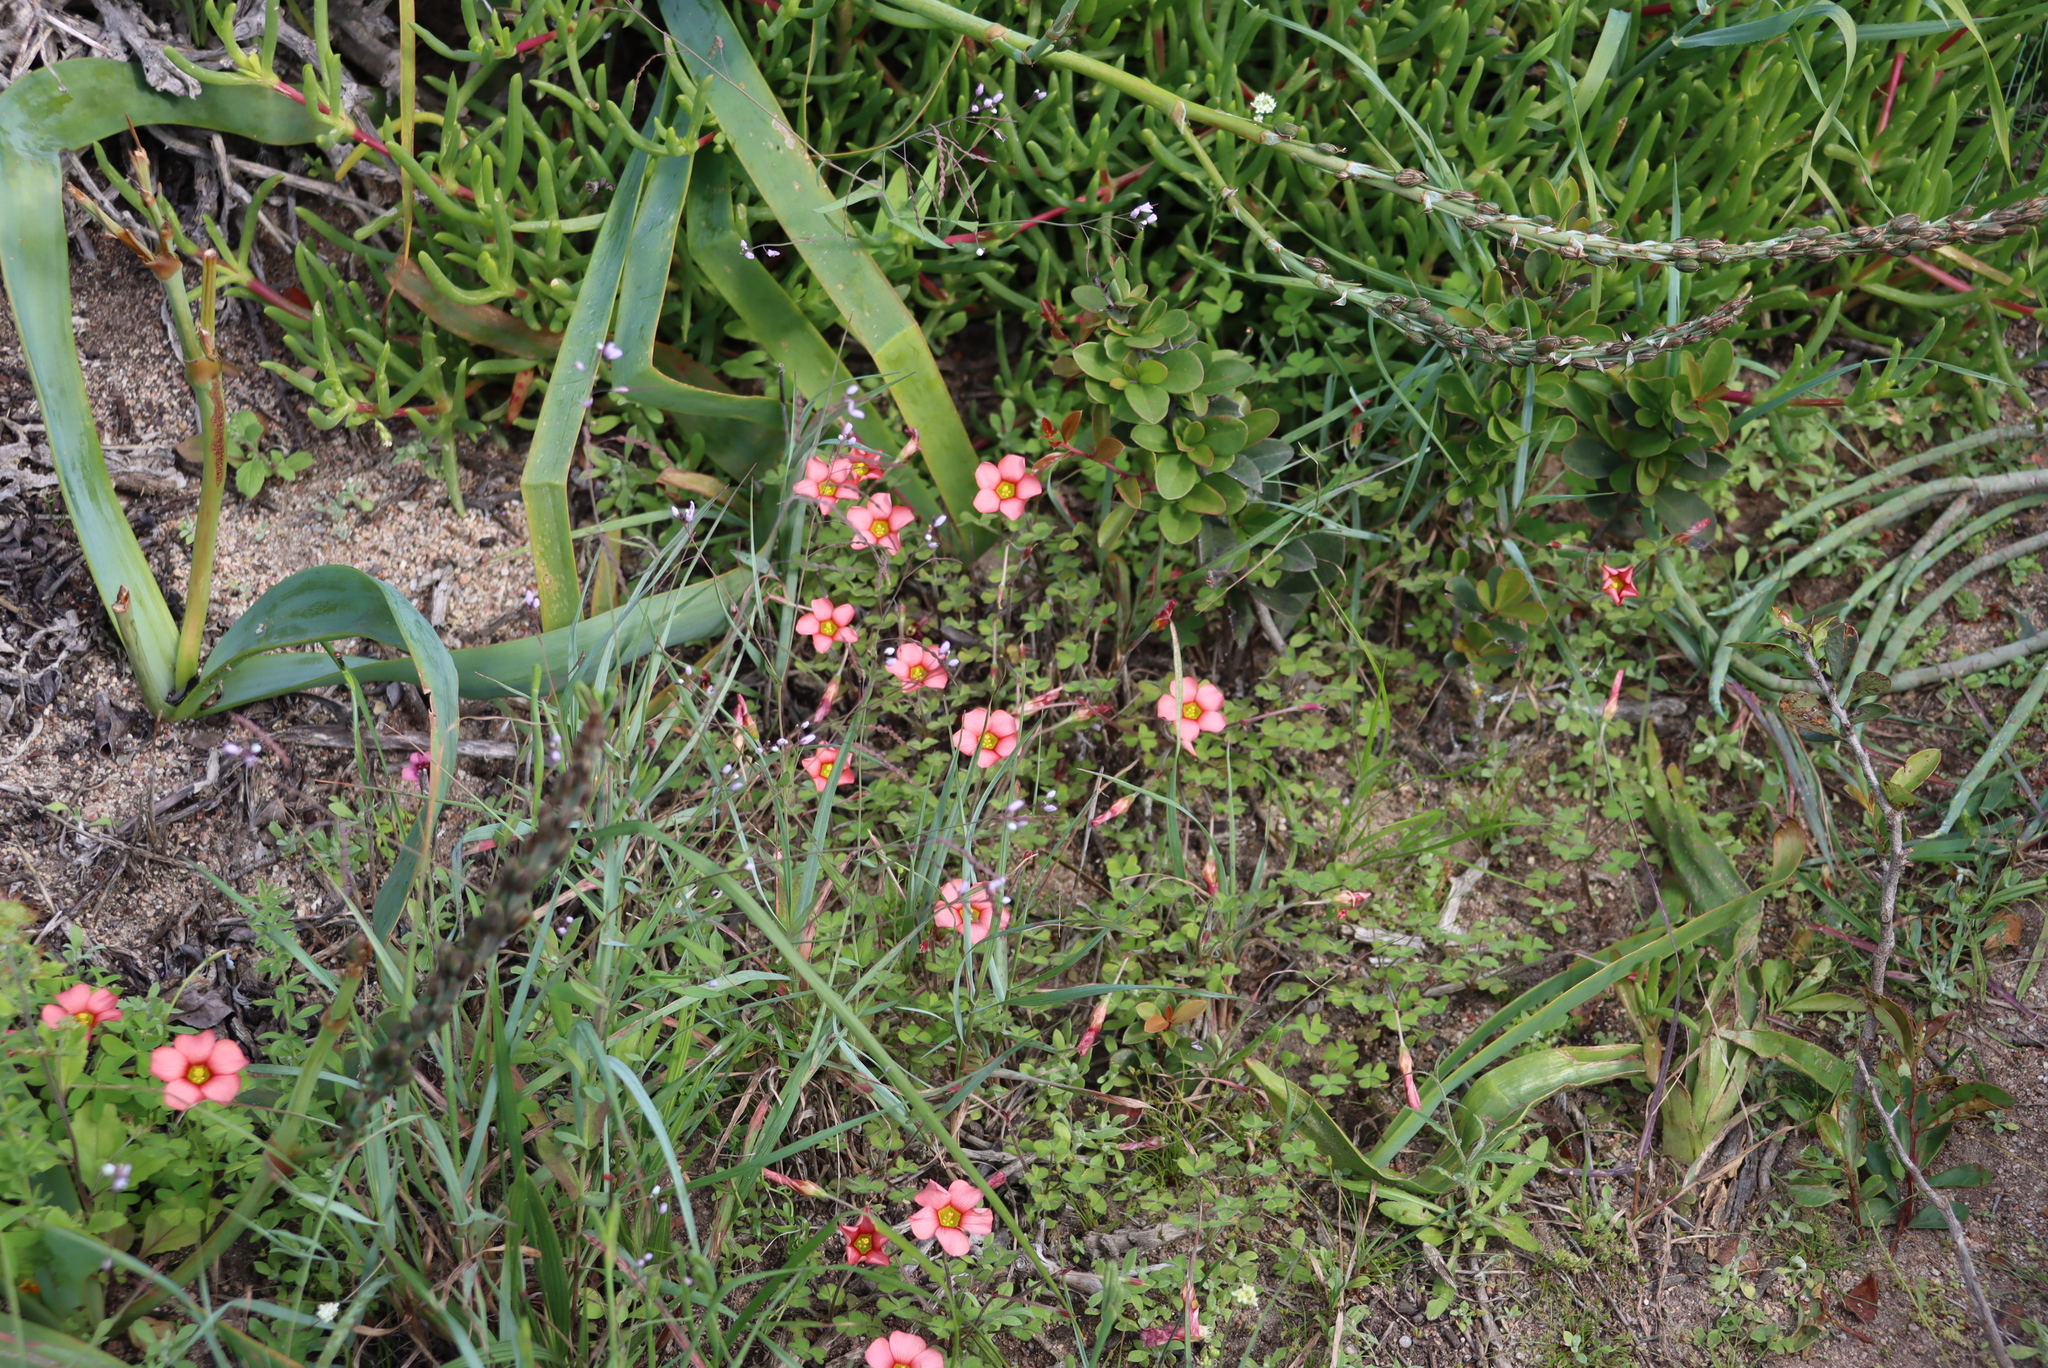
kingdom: Plantae
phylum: Tracheophyta
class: Magnoliopsida
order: Oxalidales
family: Oxalidaceae
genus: Oxalis
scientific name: Oxalis obtusa
